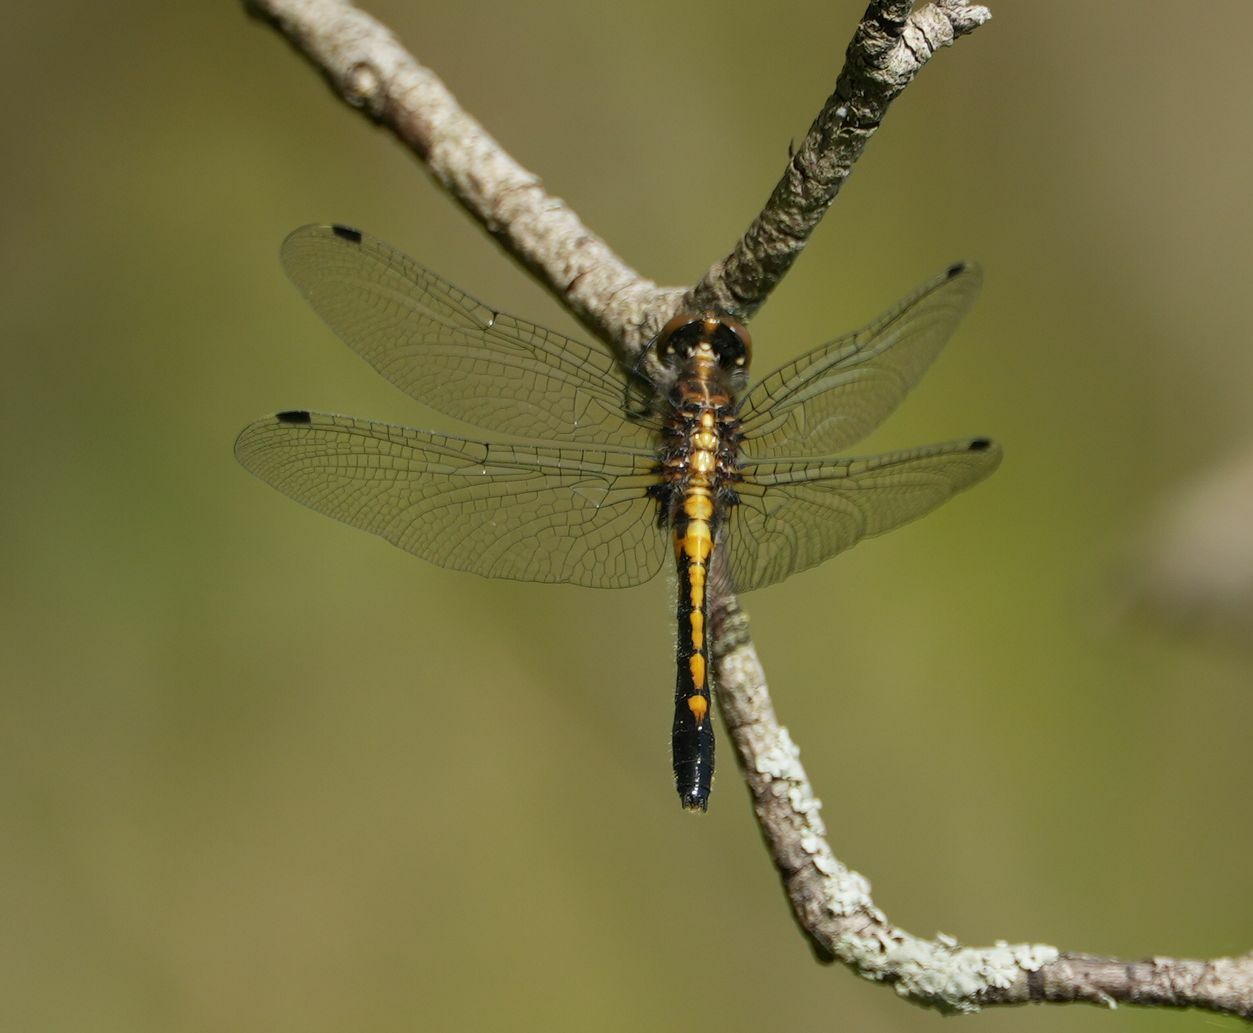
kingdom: Animalia
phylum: Arthropoda
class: Insecta
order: Odonata
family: Libellulidae
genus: Leucorrhinia
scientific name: Leucorrhinia intacta
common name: Dot-tailed whiteface
